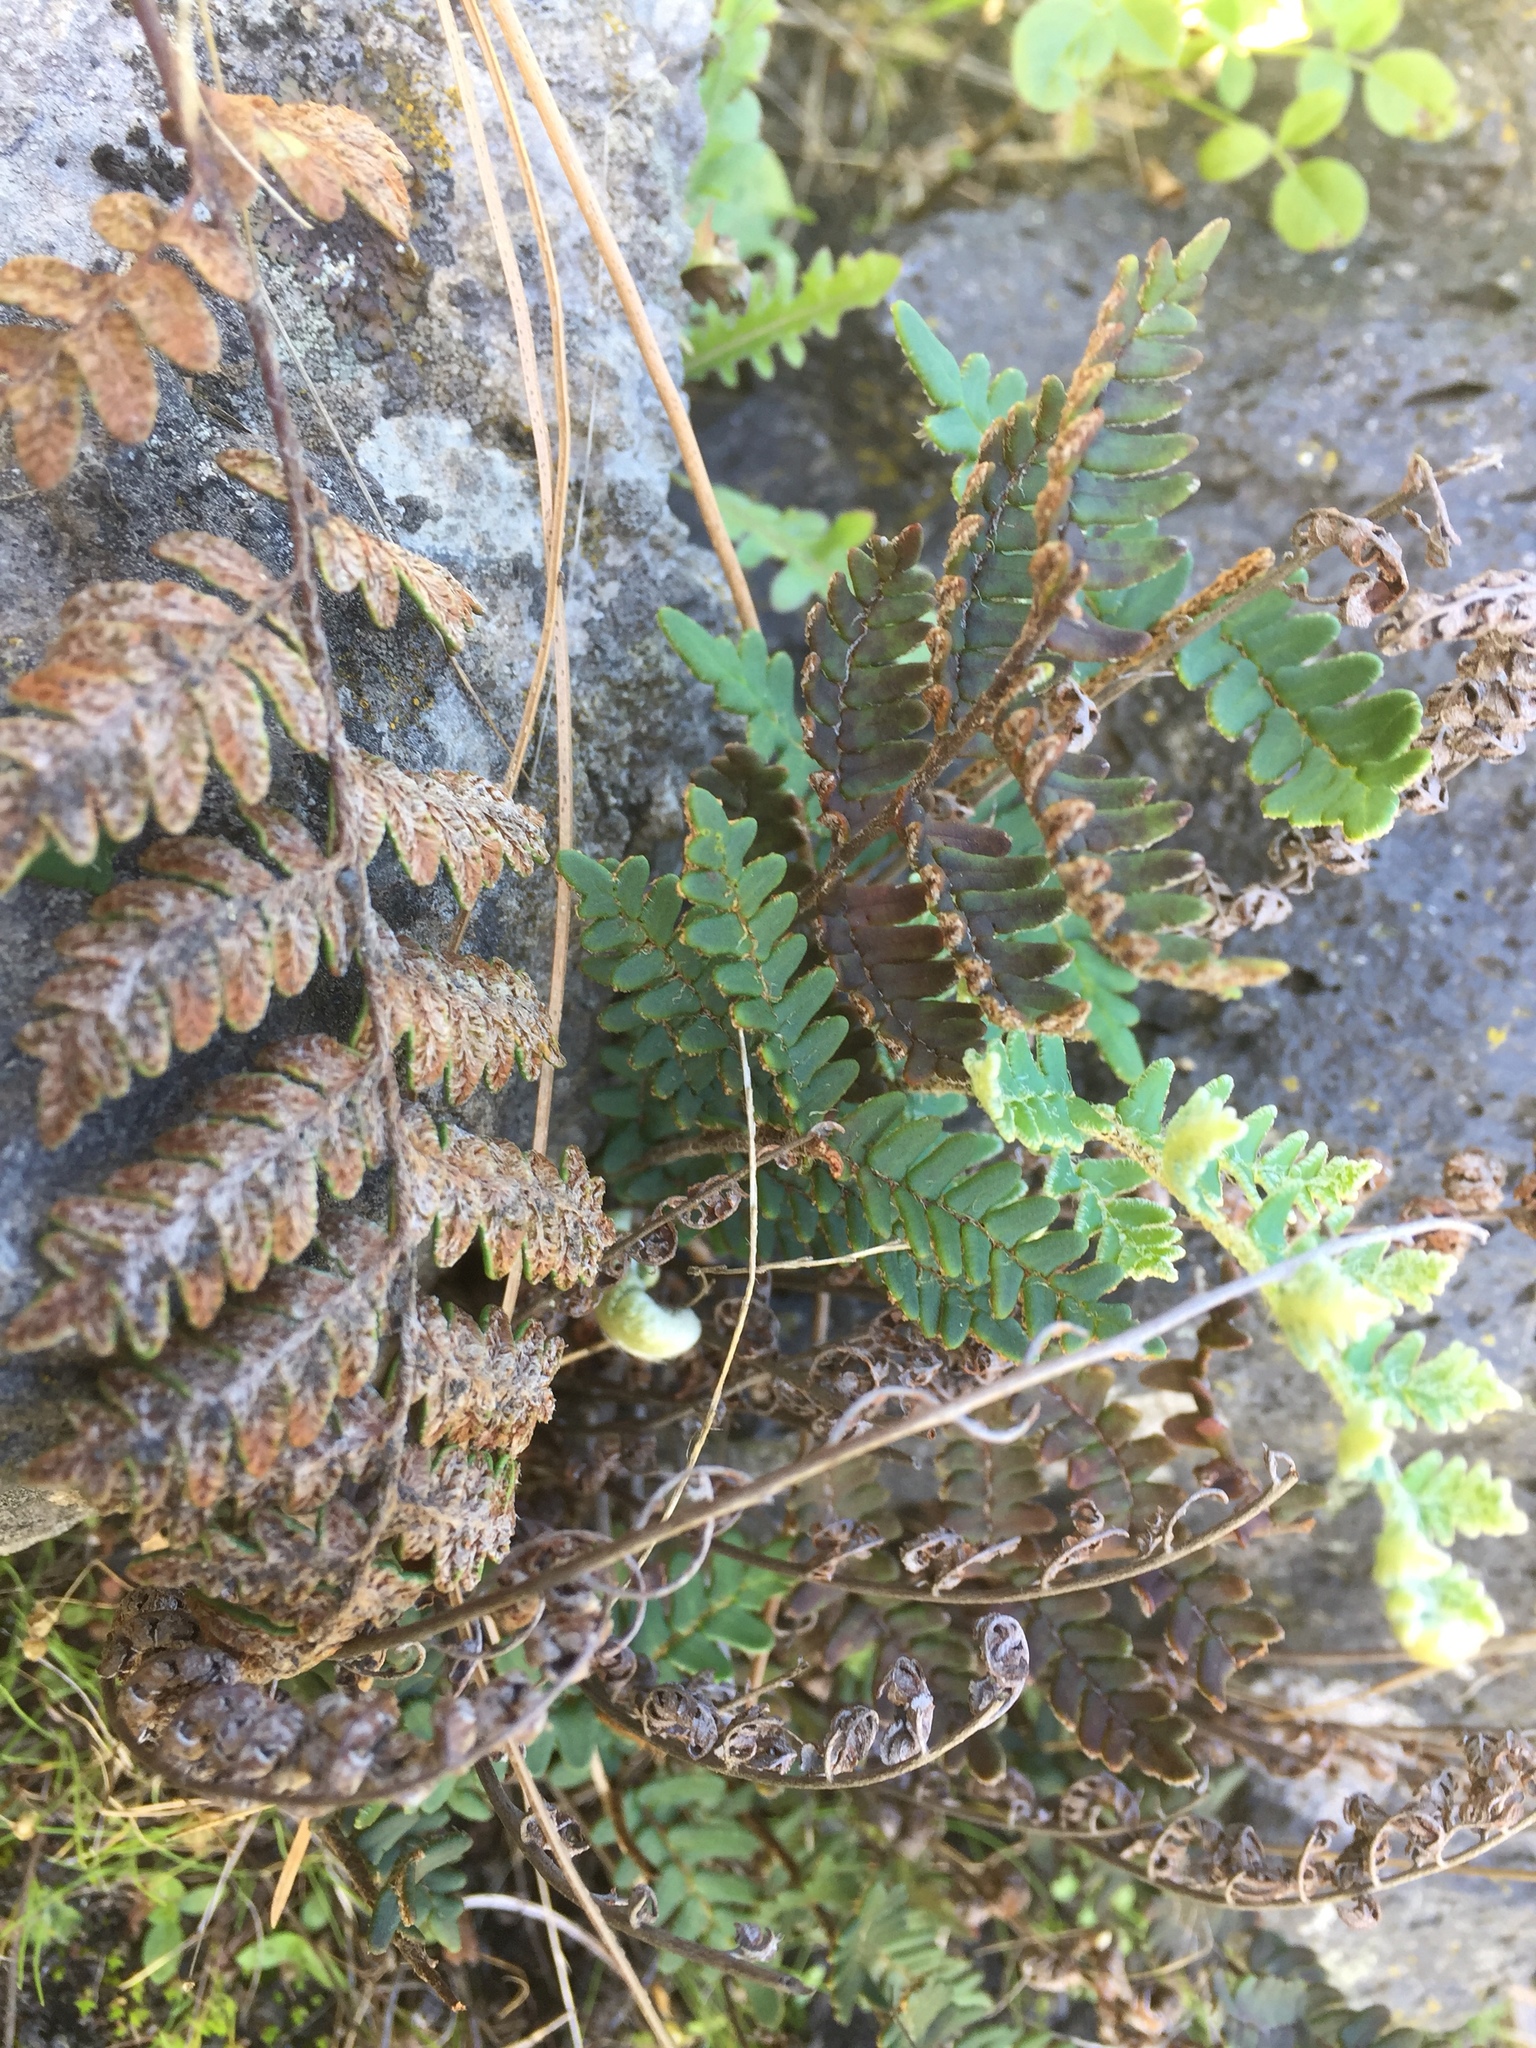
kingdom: Plantae
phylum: Tracheophyta
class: Polypodiopsida
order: Polypodiales
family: Pteridaceae
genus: Paragymnopteris
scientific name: Paragymnopteris marantae
